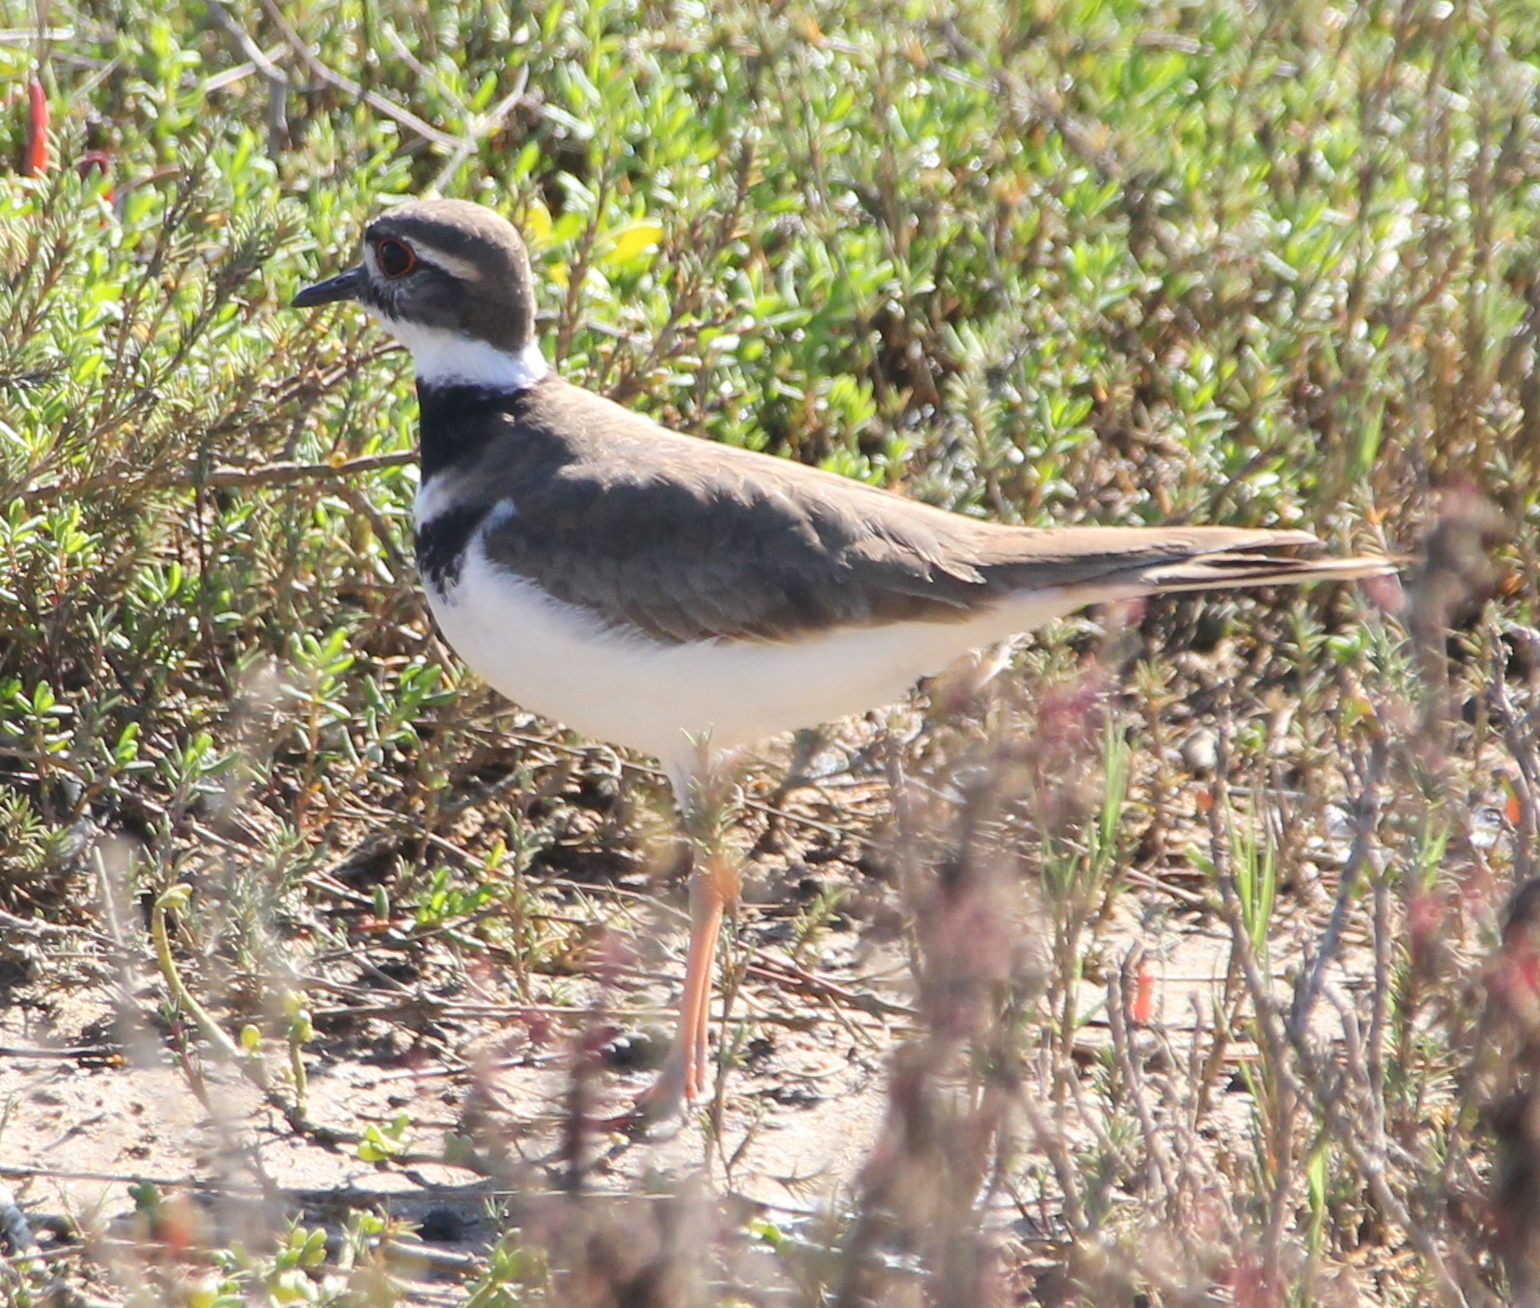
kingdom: Animalia
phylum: Chordata
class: Aves
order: Charadriiformes
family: Charadriidae
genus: Charadrius
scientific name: Charadrius vociferus
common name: Killdeer
